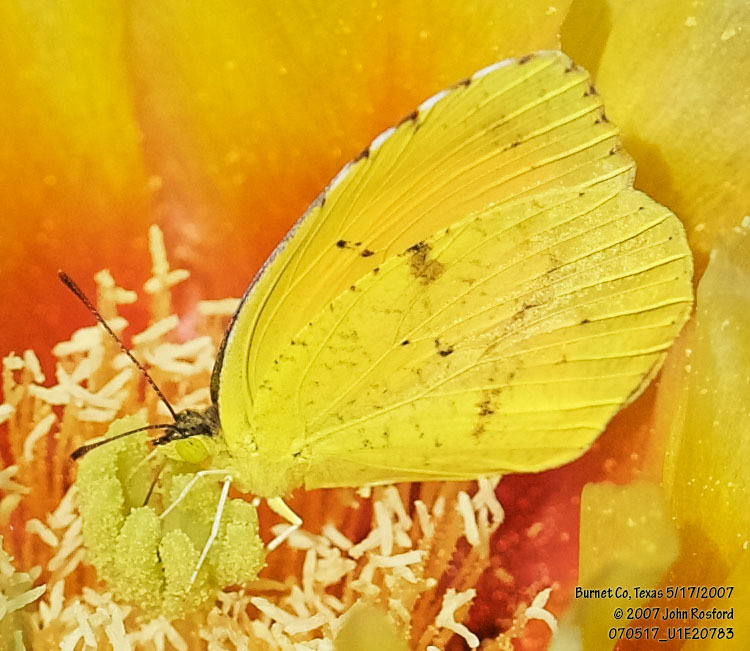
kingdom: Animalia
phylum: Arthropoda
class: Insecta
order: Lepidoptera
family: Pieridae
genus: Abaeis
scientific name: Abaeis nicippe
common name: Sleepy orange
